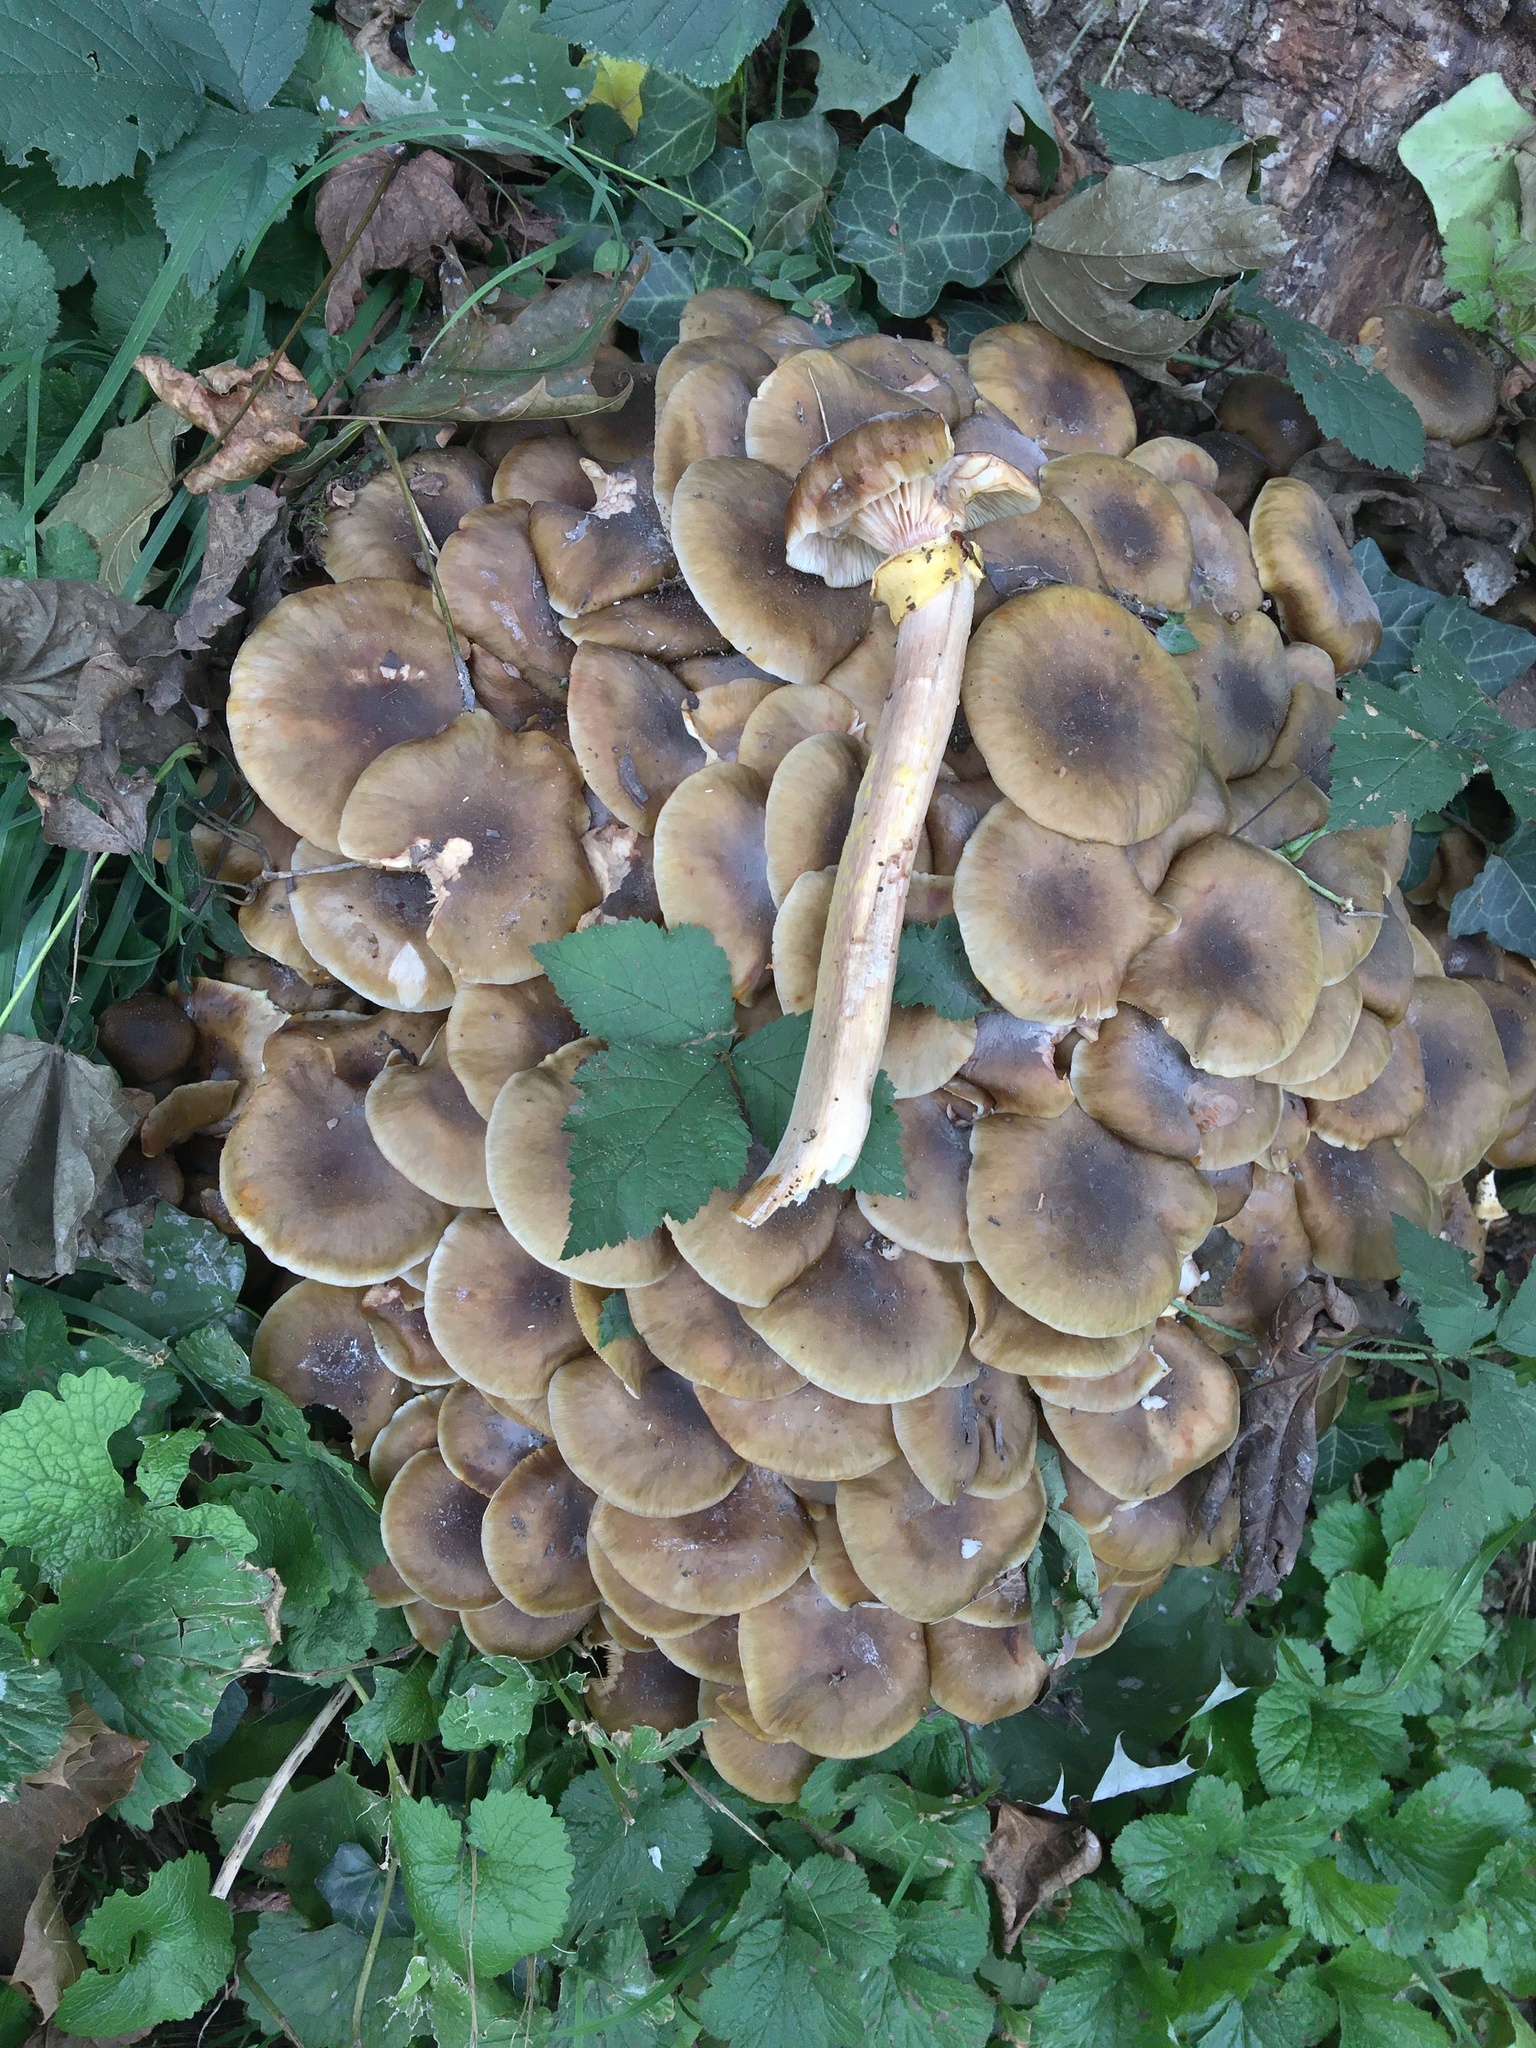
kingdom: Fungi
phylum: Basidiomycota
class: Agaricomycetes
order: Agaricales
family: Physalacriaceae
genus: Armillaria
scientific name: Armillaria mellea
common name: Honey fungus
